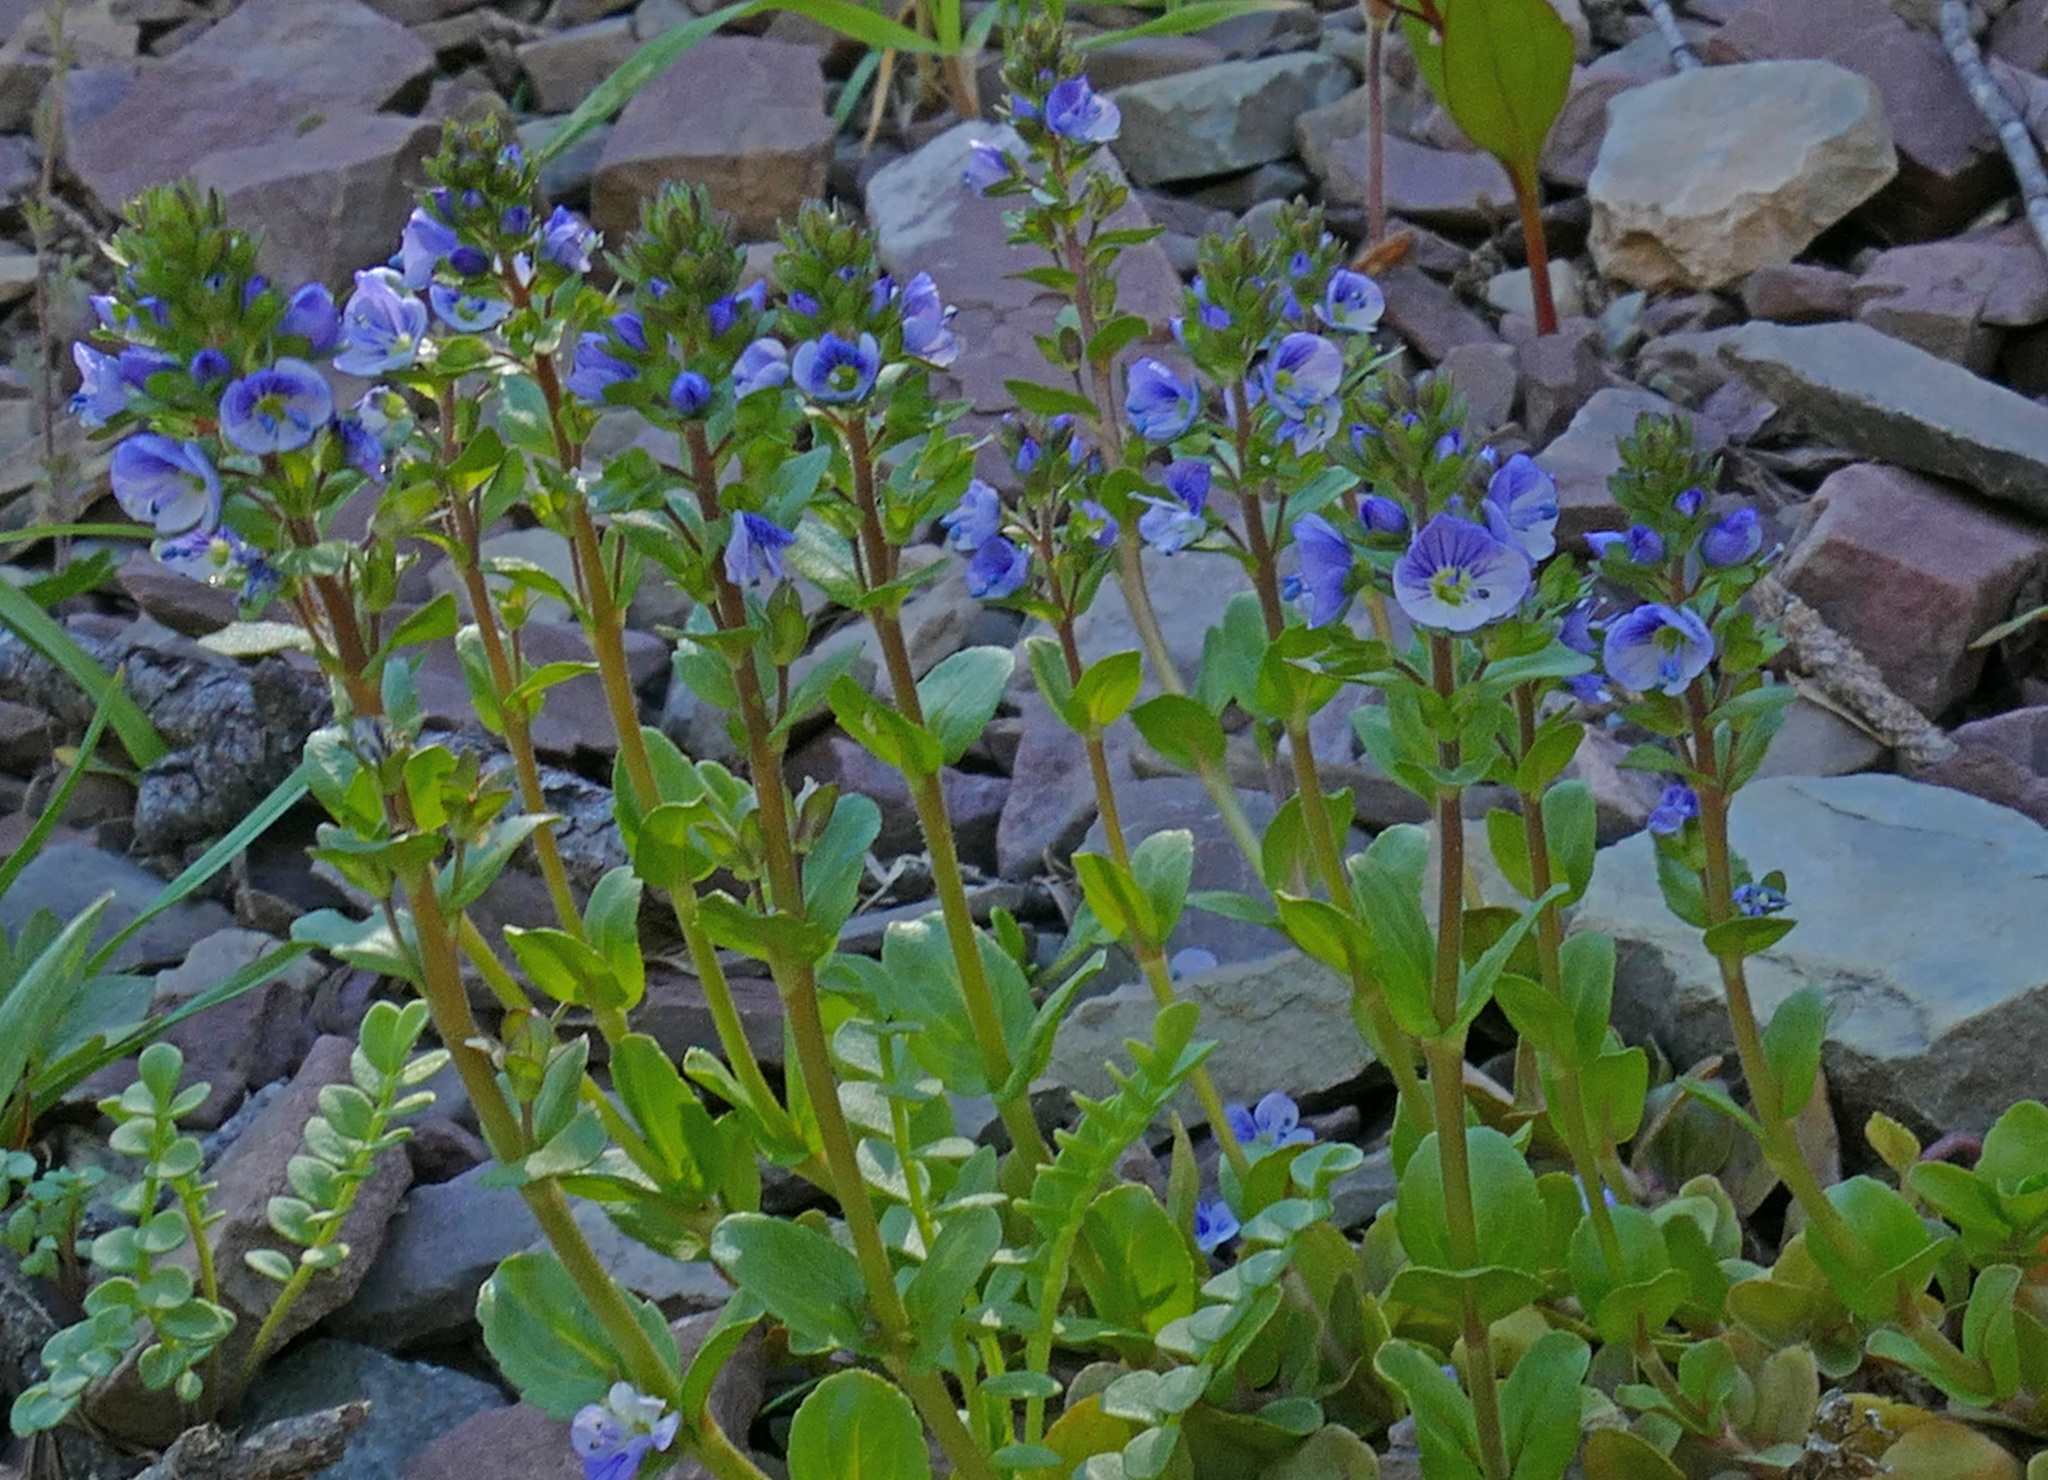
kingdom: Plantae
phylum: Tracheophyta
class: Magnoliopsida
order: Lamiales
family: Plantaginaceae
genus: Veronica
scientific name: Veronica serpyllifolia
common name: Thyme-leaved speedwell
